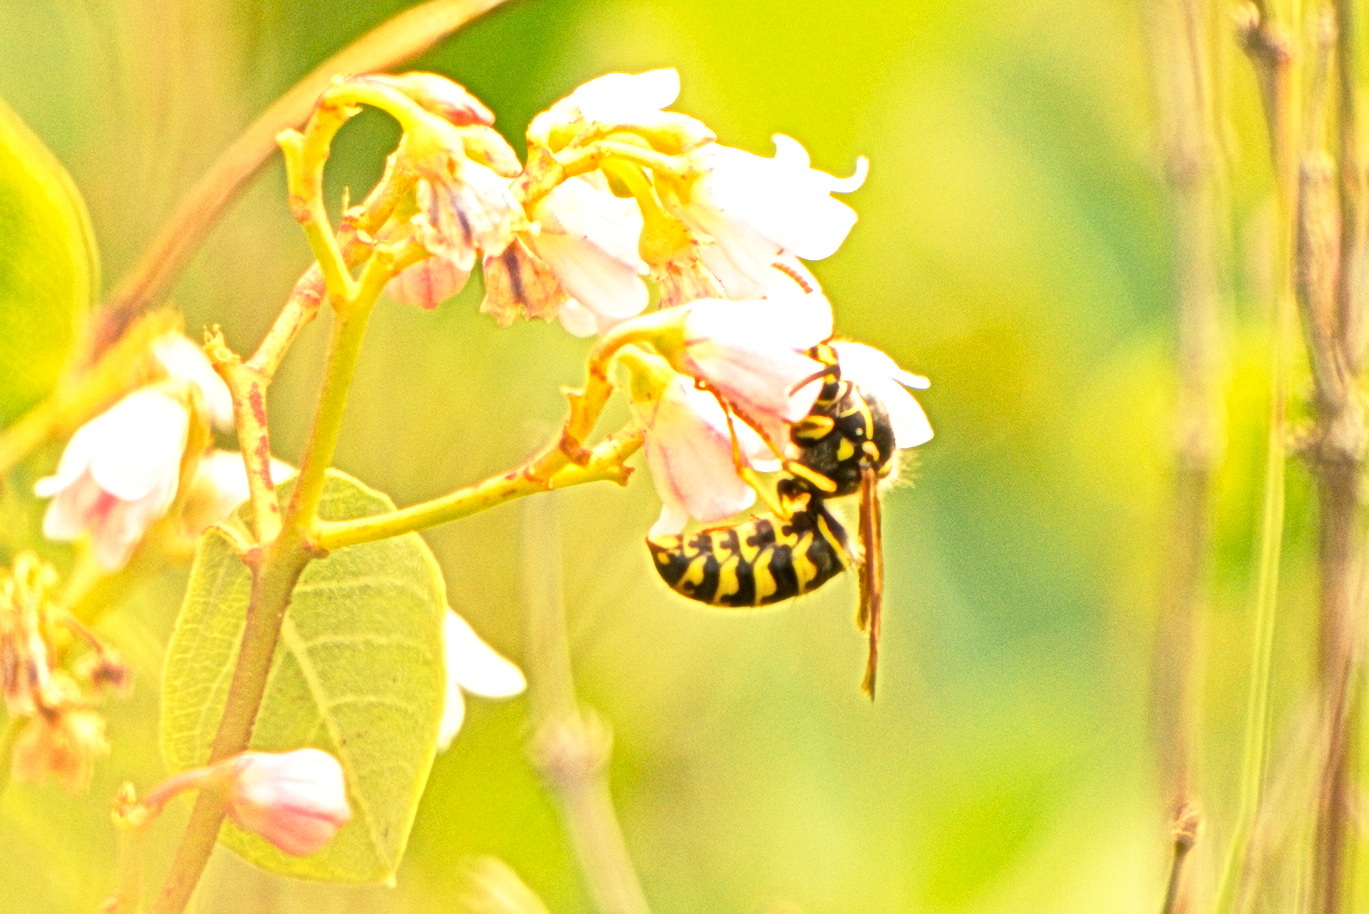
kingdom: Animalia
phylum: Arthropoda
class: Insecta
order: Hymenoptera
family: Vespidae
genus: Dolichovespula
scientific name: Dolichovespula arenaria
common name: Aerial yellowjacket
